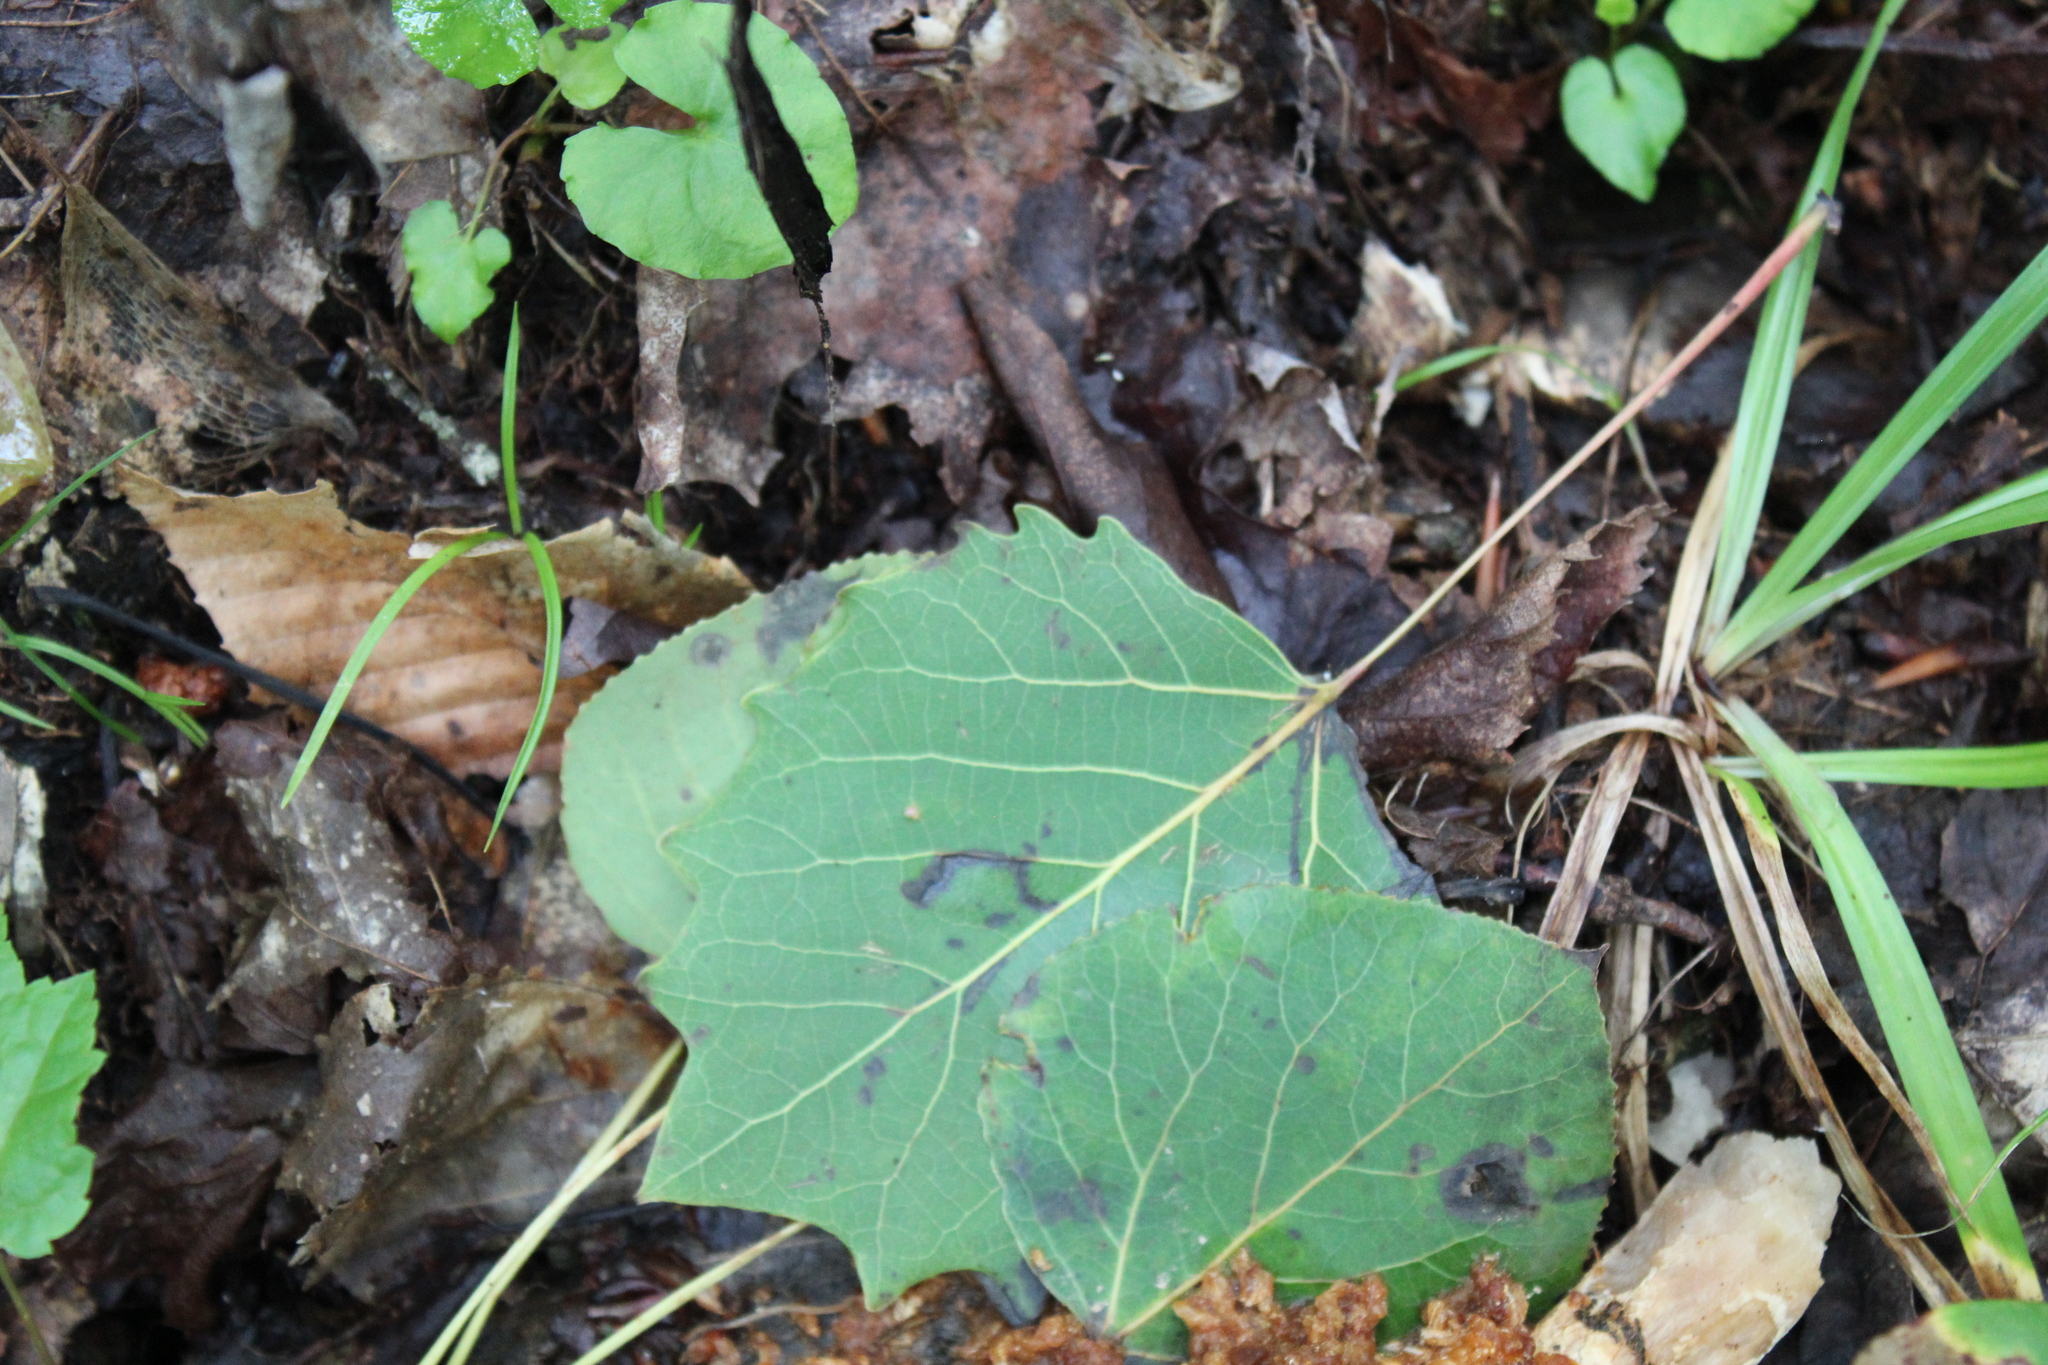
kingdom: Plantae
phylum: Tracheophyta
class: Magnoliopsida
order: Malpighiales
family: Salicaceae
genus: Populus
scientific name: Populus grandidentata
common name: Bigtooth aspen
